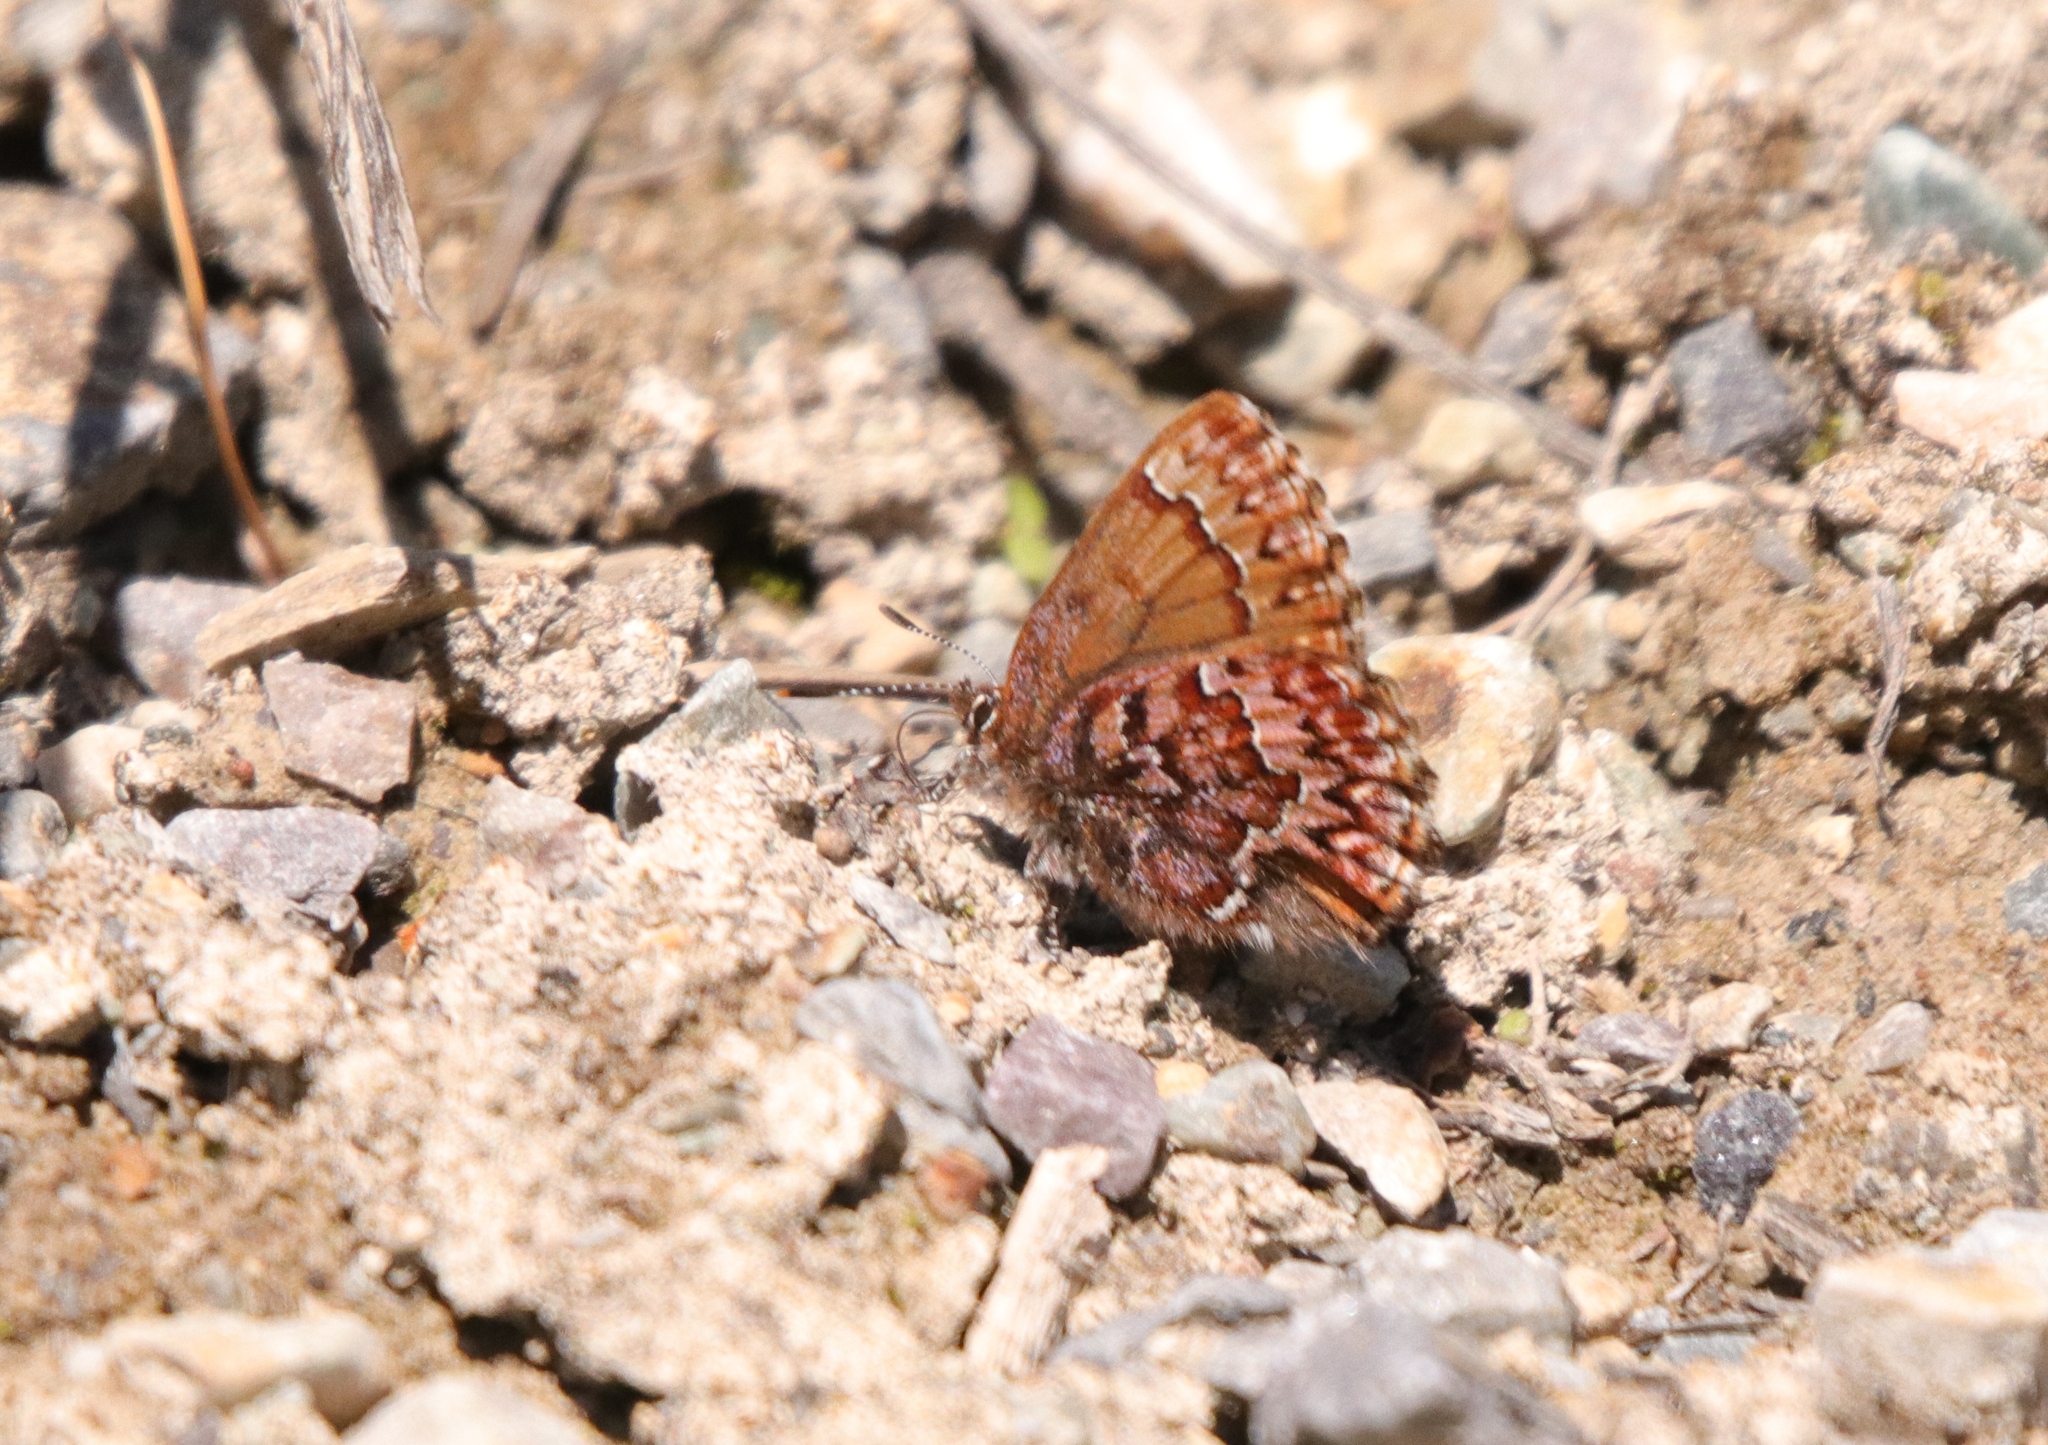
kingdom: Animalia
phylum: Arthropoda
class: Insecta
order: Lepidoptera
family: Lycaenidae
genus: Incisalia
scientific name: Incisalia eryphon
